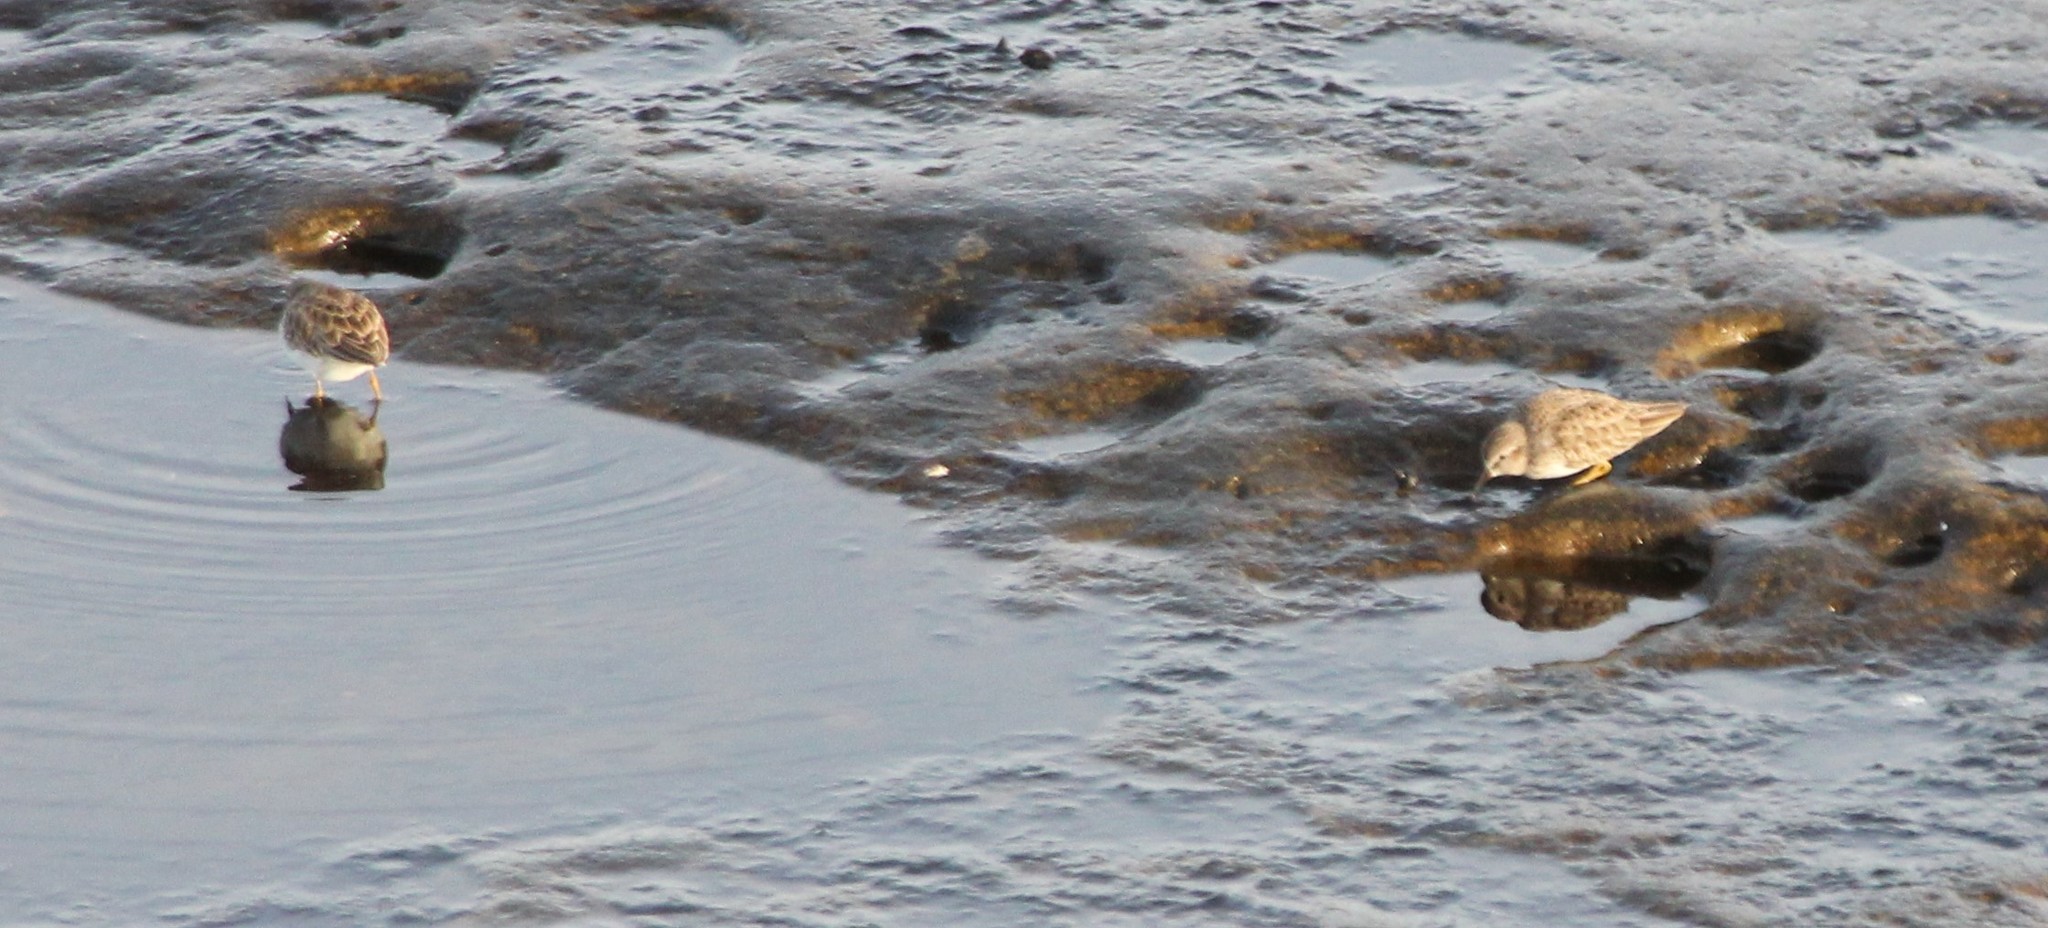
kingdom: Animalia
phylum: Chordata
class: Aves
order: Charadriiformes
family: Scolopacidae
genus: Calidris
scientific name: Calidris minutilla
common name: Least sandpiper
